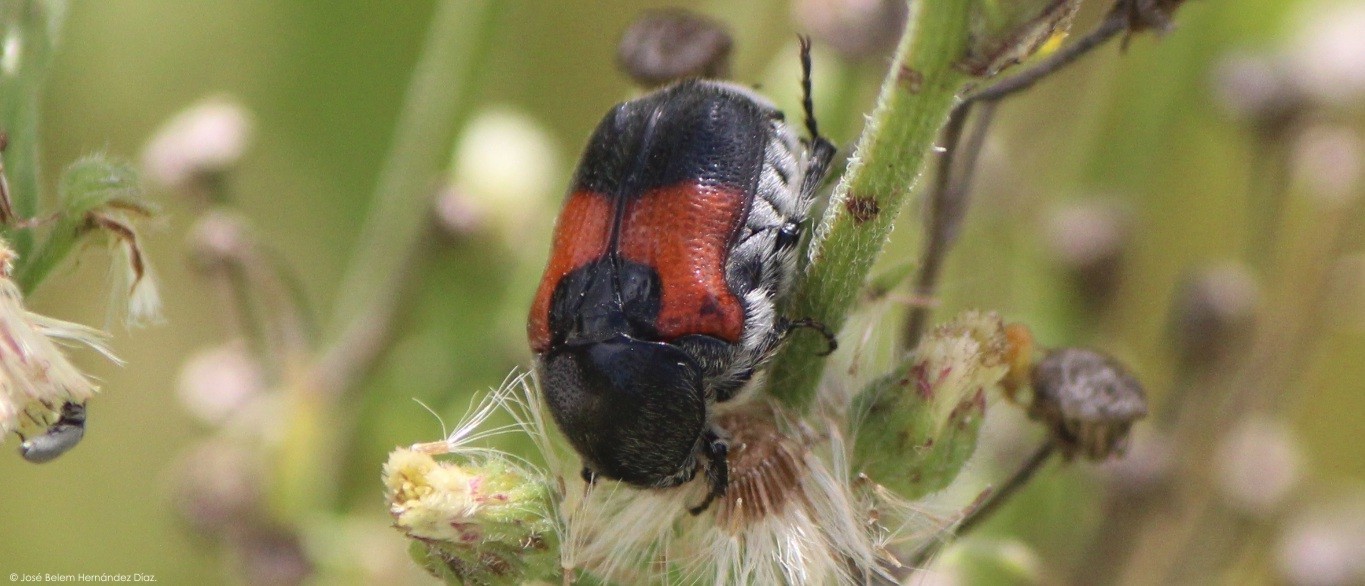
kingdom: Animalia
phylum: Arthropoda
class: Insecta
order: Coleoptera
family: Scarabaeidae
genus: Euphoria
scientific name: Euphoria dimidiata
